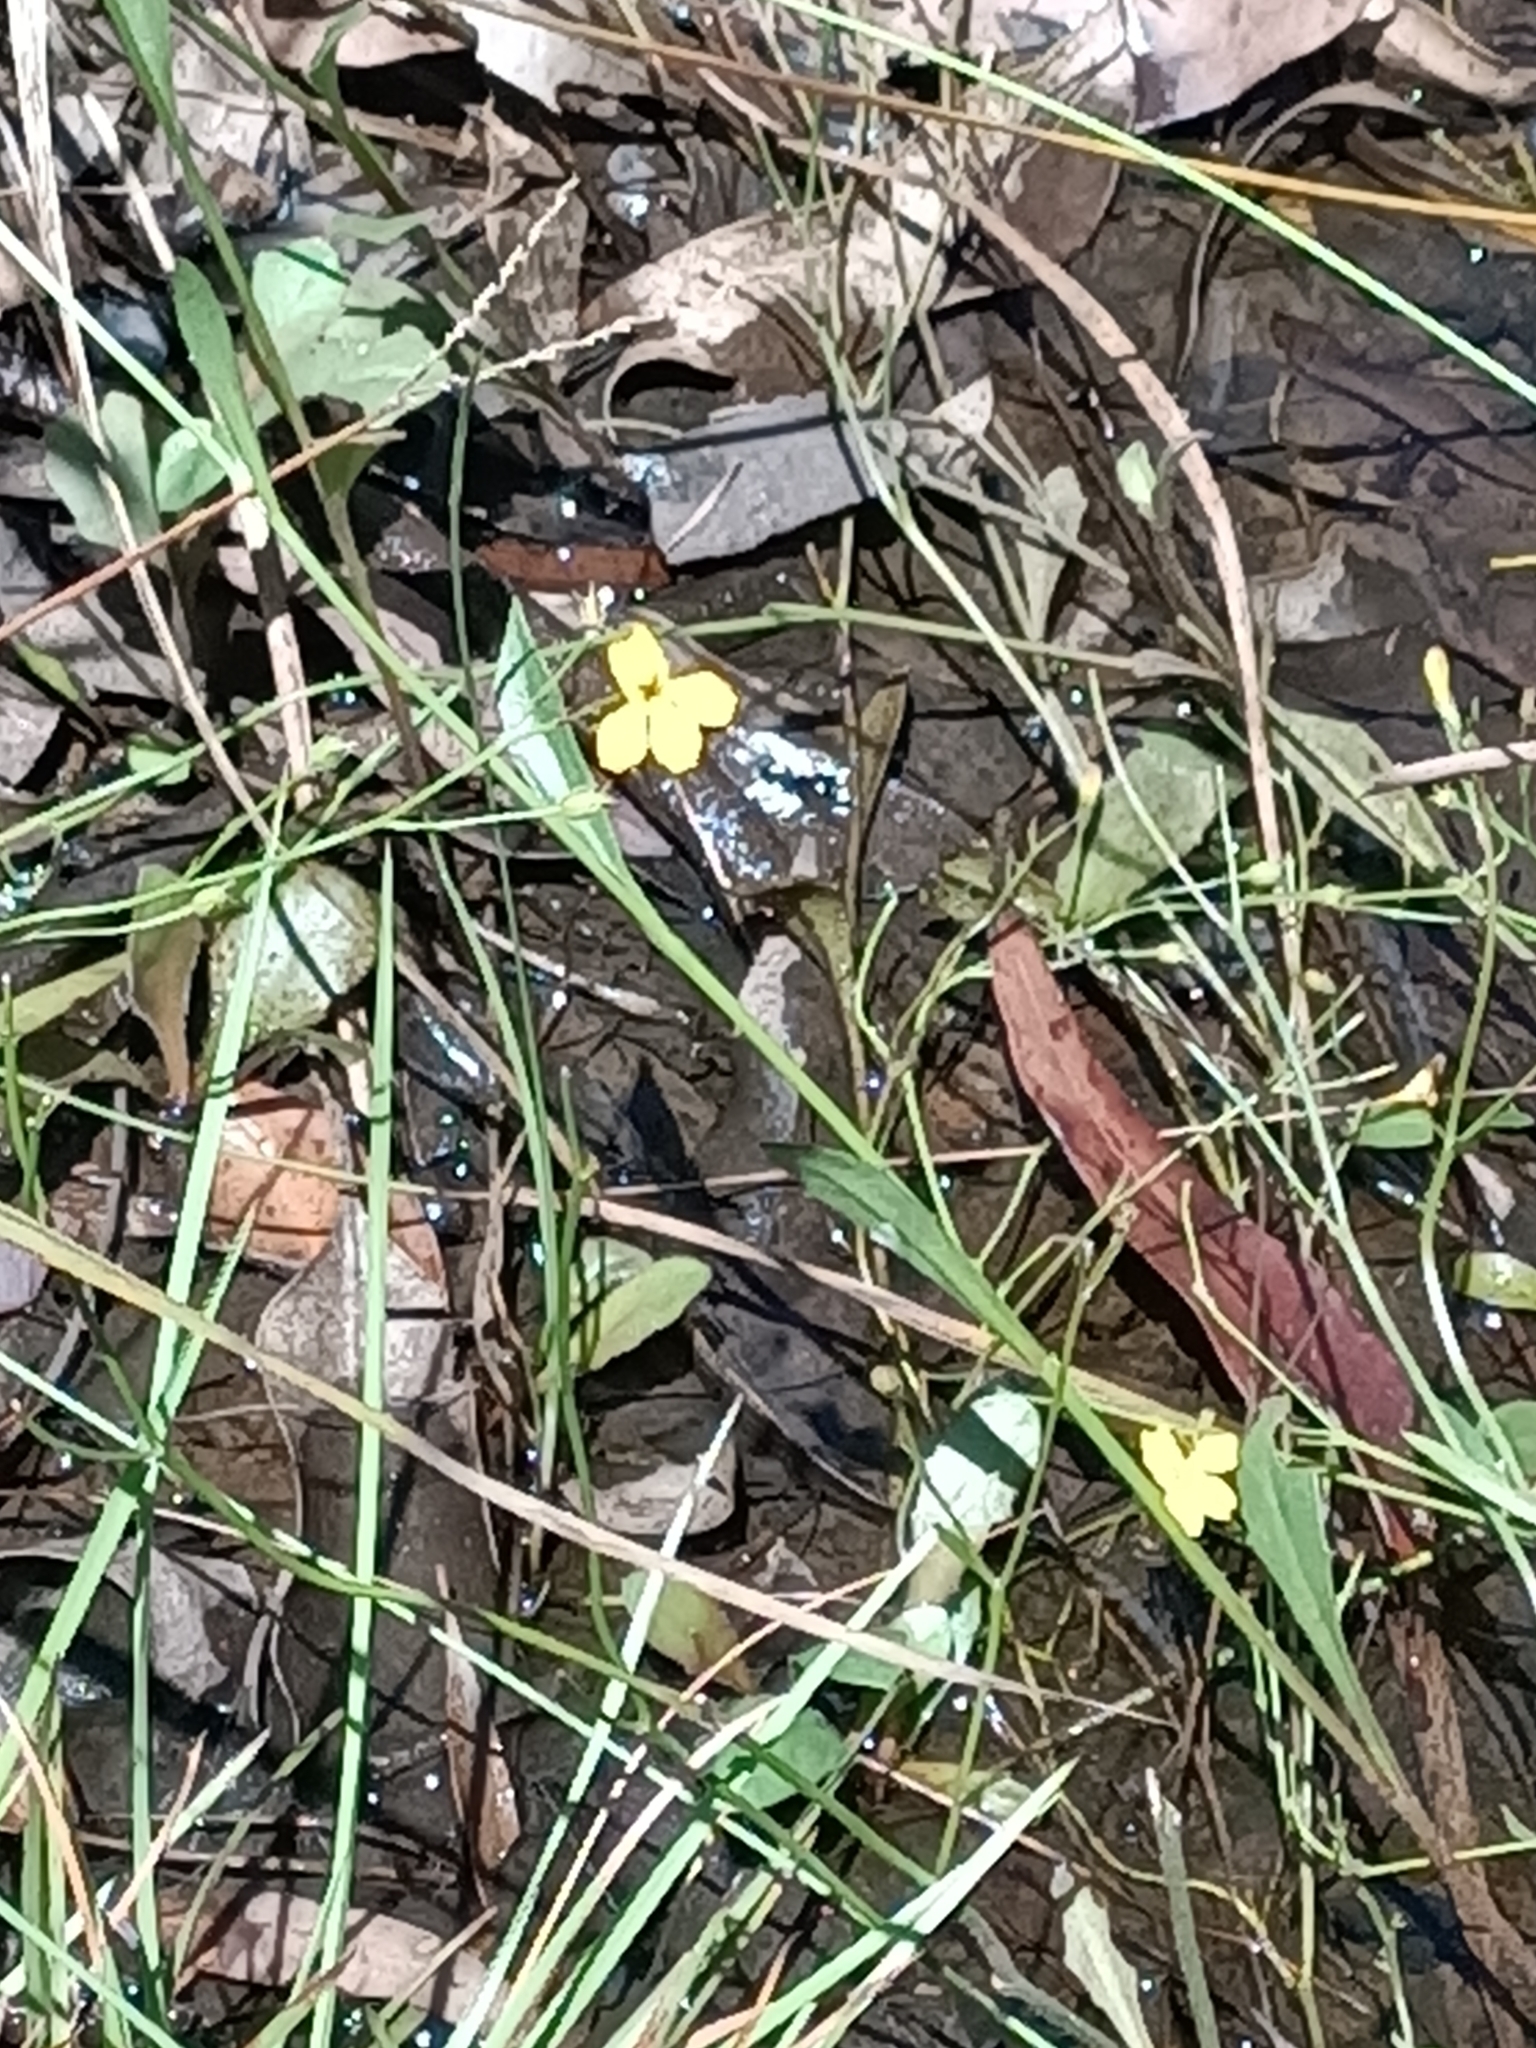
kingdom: Plantae
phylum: Tracheophyta
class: Magnoliopsida
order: Asterales
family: Goodeniaceae
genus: Goodenia
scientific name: Goodenia paniculata
